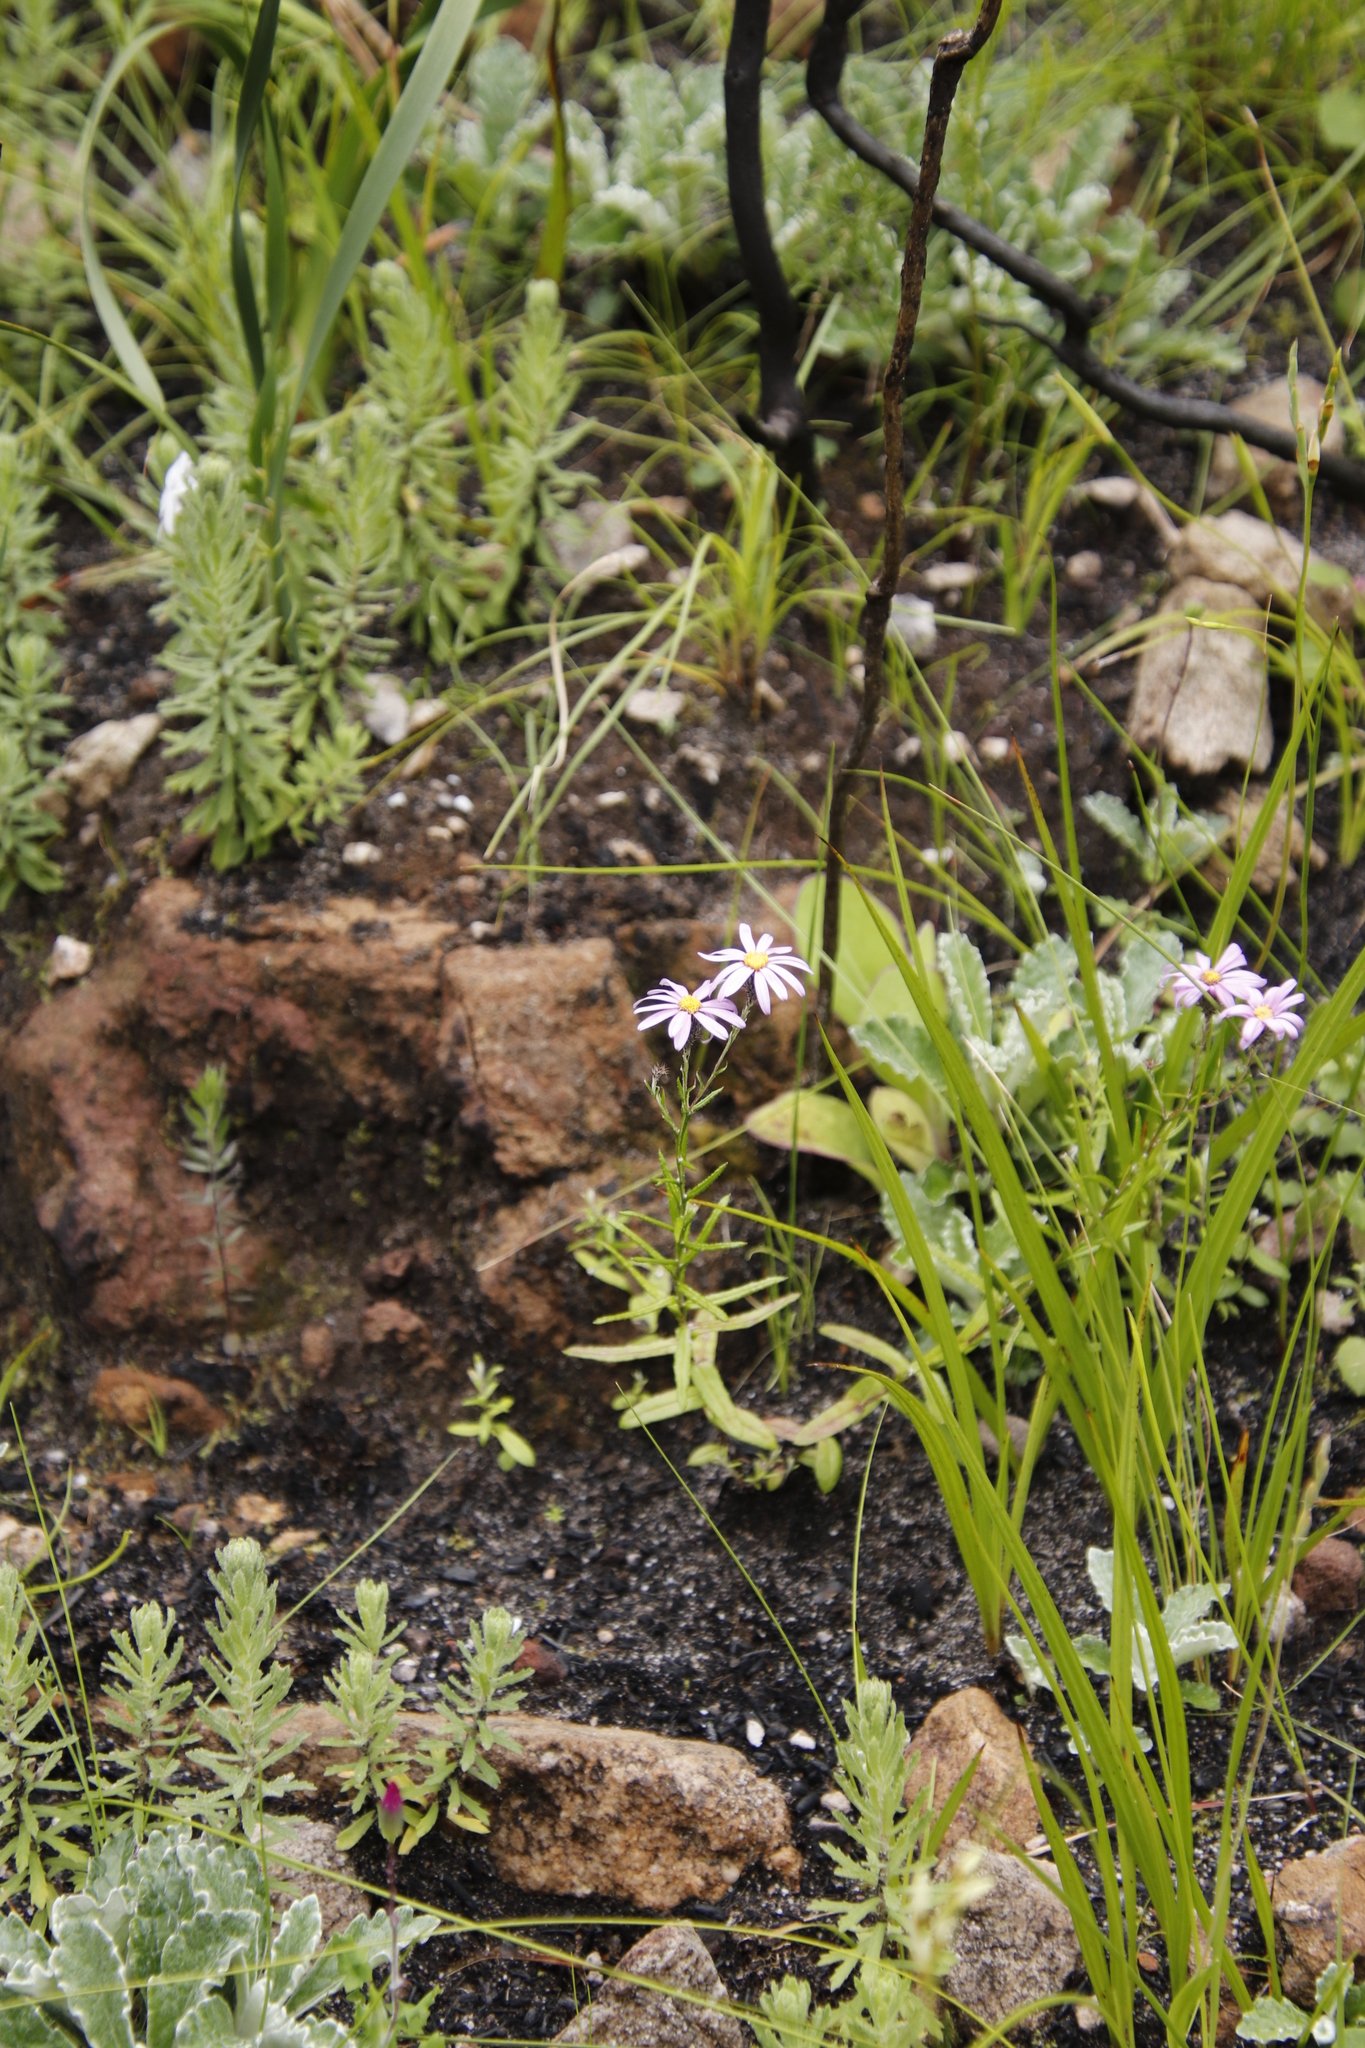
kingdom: Plantae
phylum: Tracheophyta
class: Magnoliopsida
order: Asterales
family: Asteraceae
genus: Athrixia
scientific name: Athrixia heterophylla
